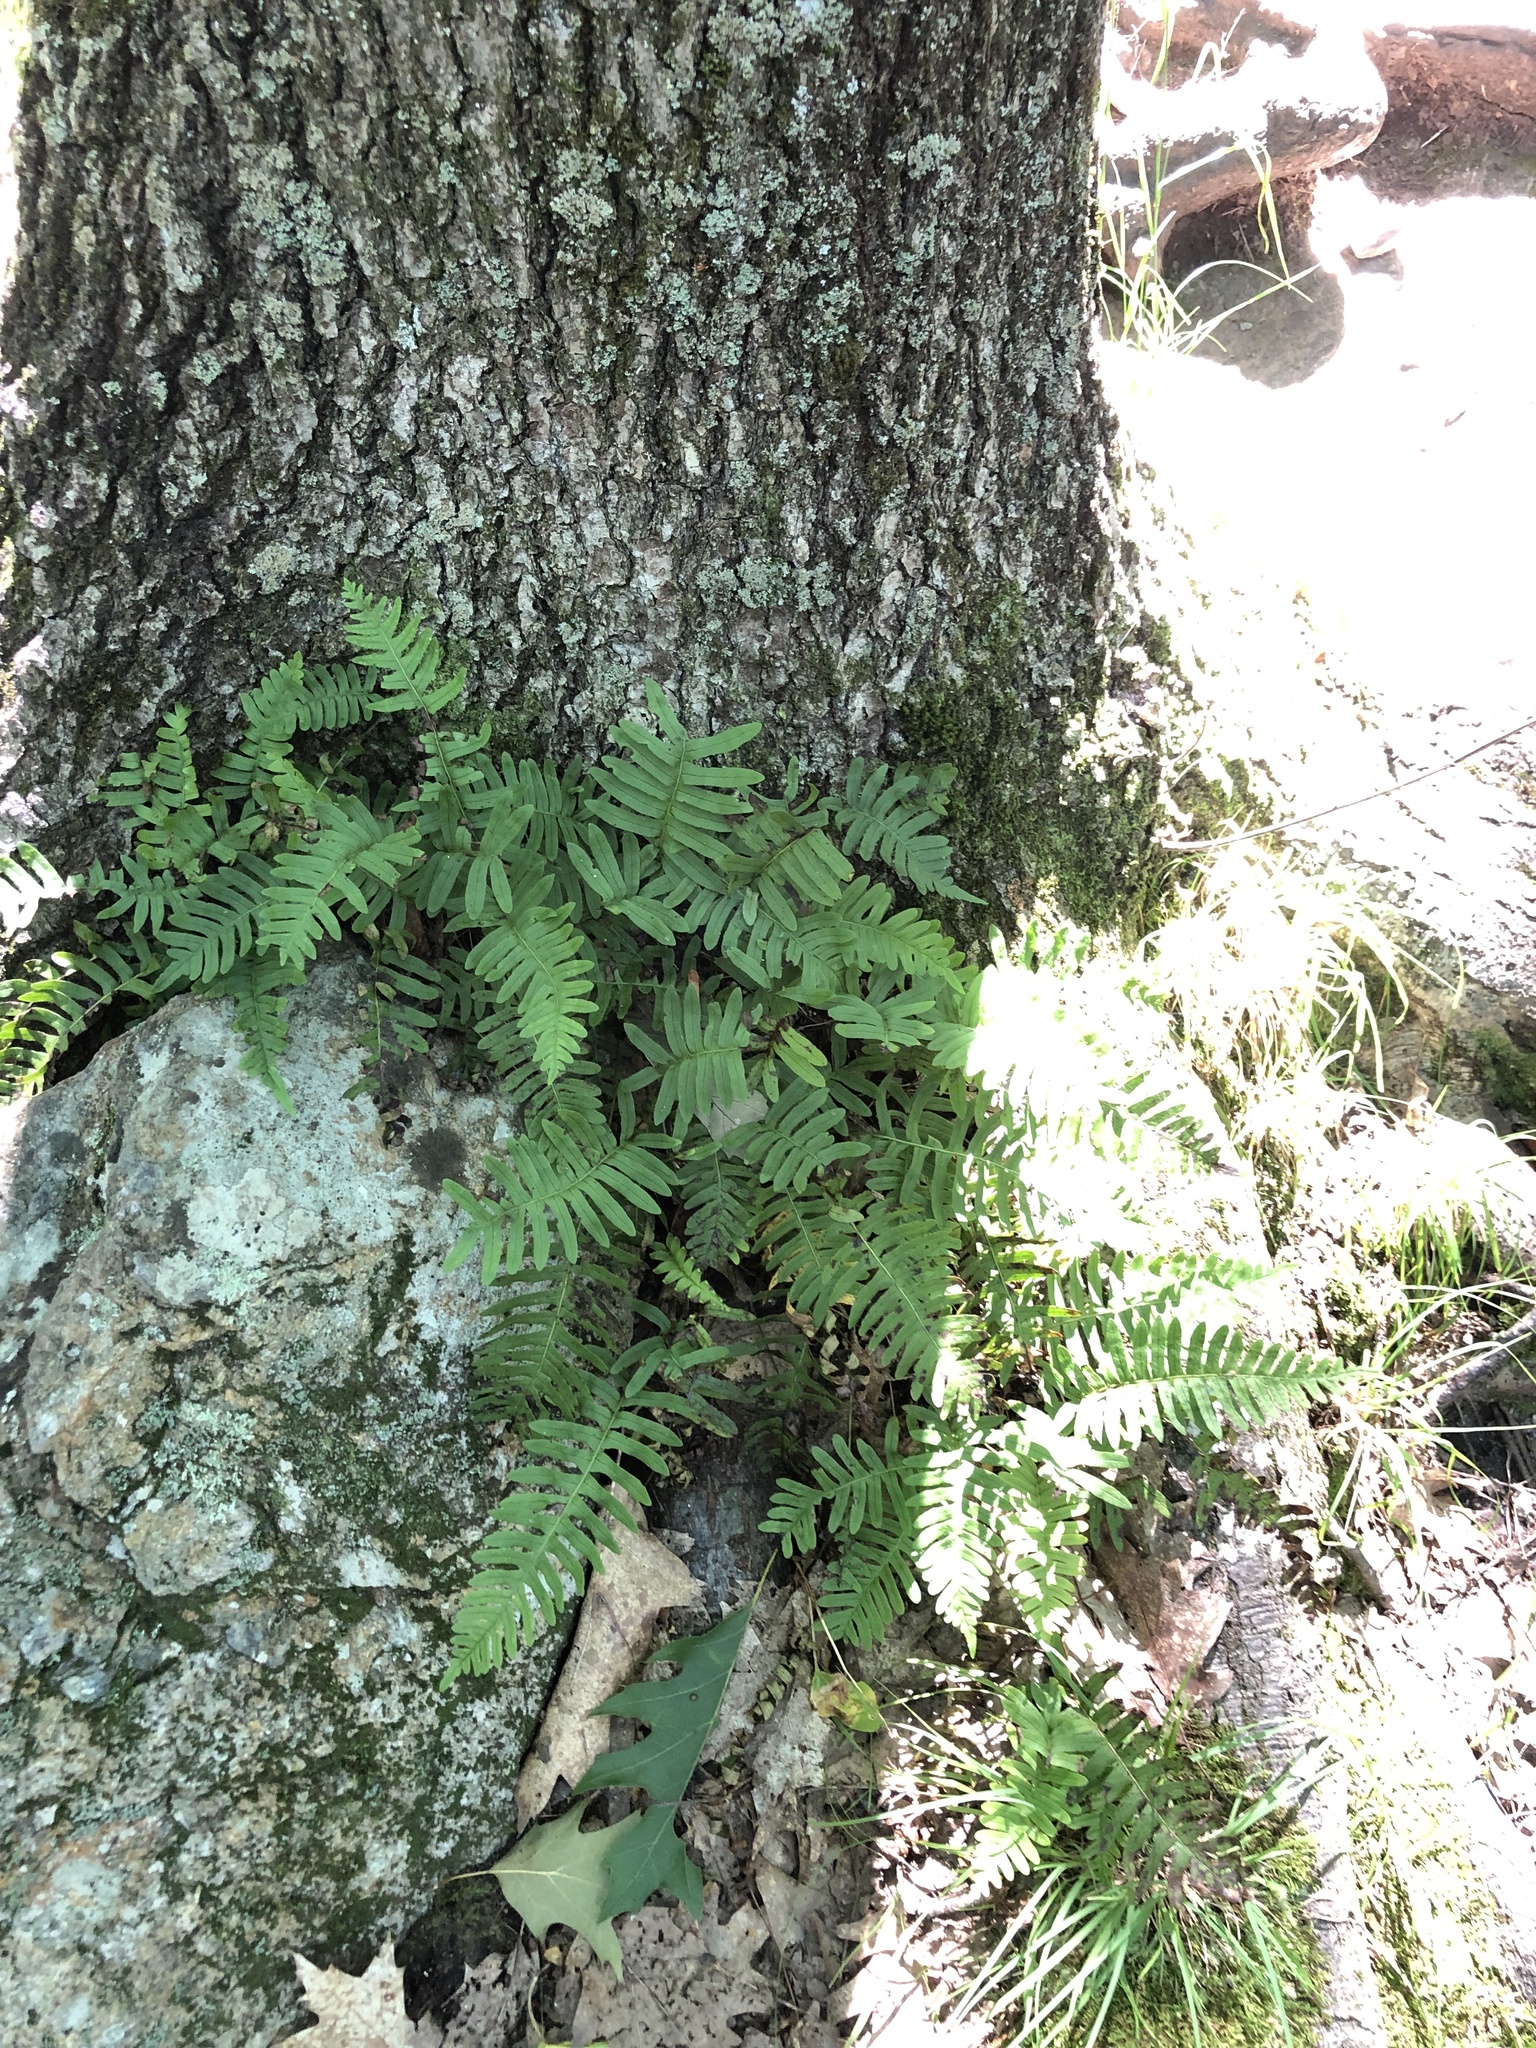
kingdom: Plantae
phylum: Tracheophyta
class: Polypodiopsida
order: Polypodiales
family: Polypodiaceae
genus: Polypodium
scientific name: Polypodium virginianum
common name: American wall fern
